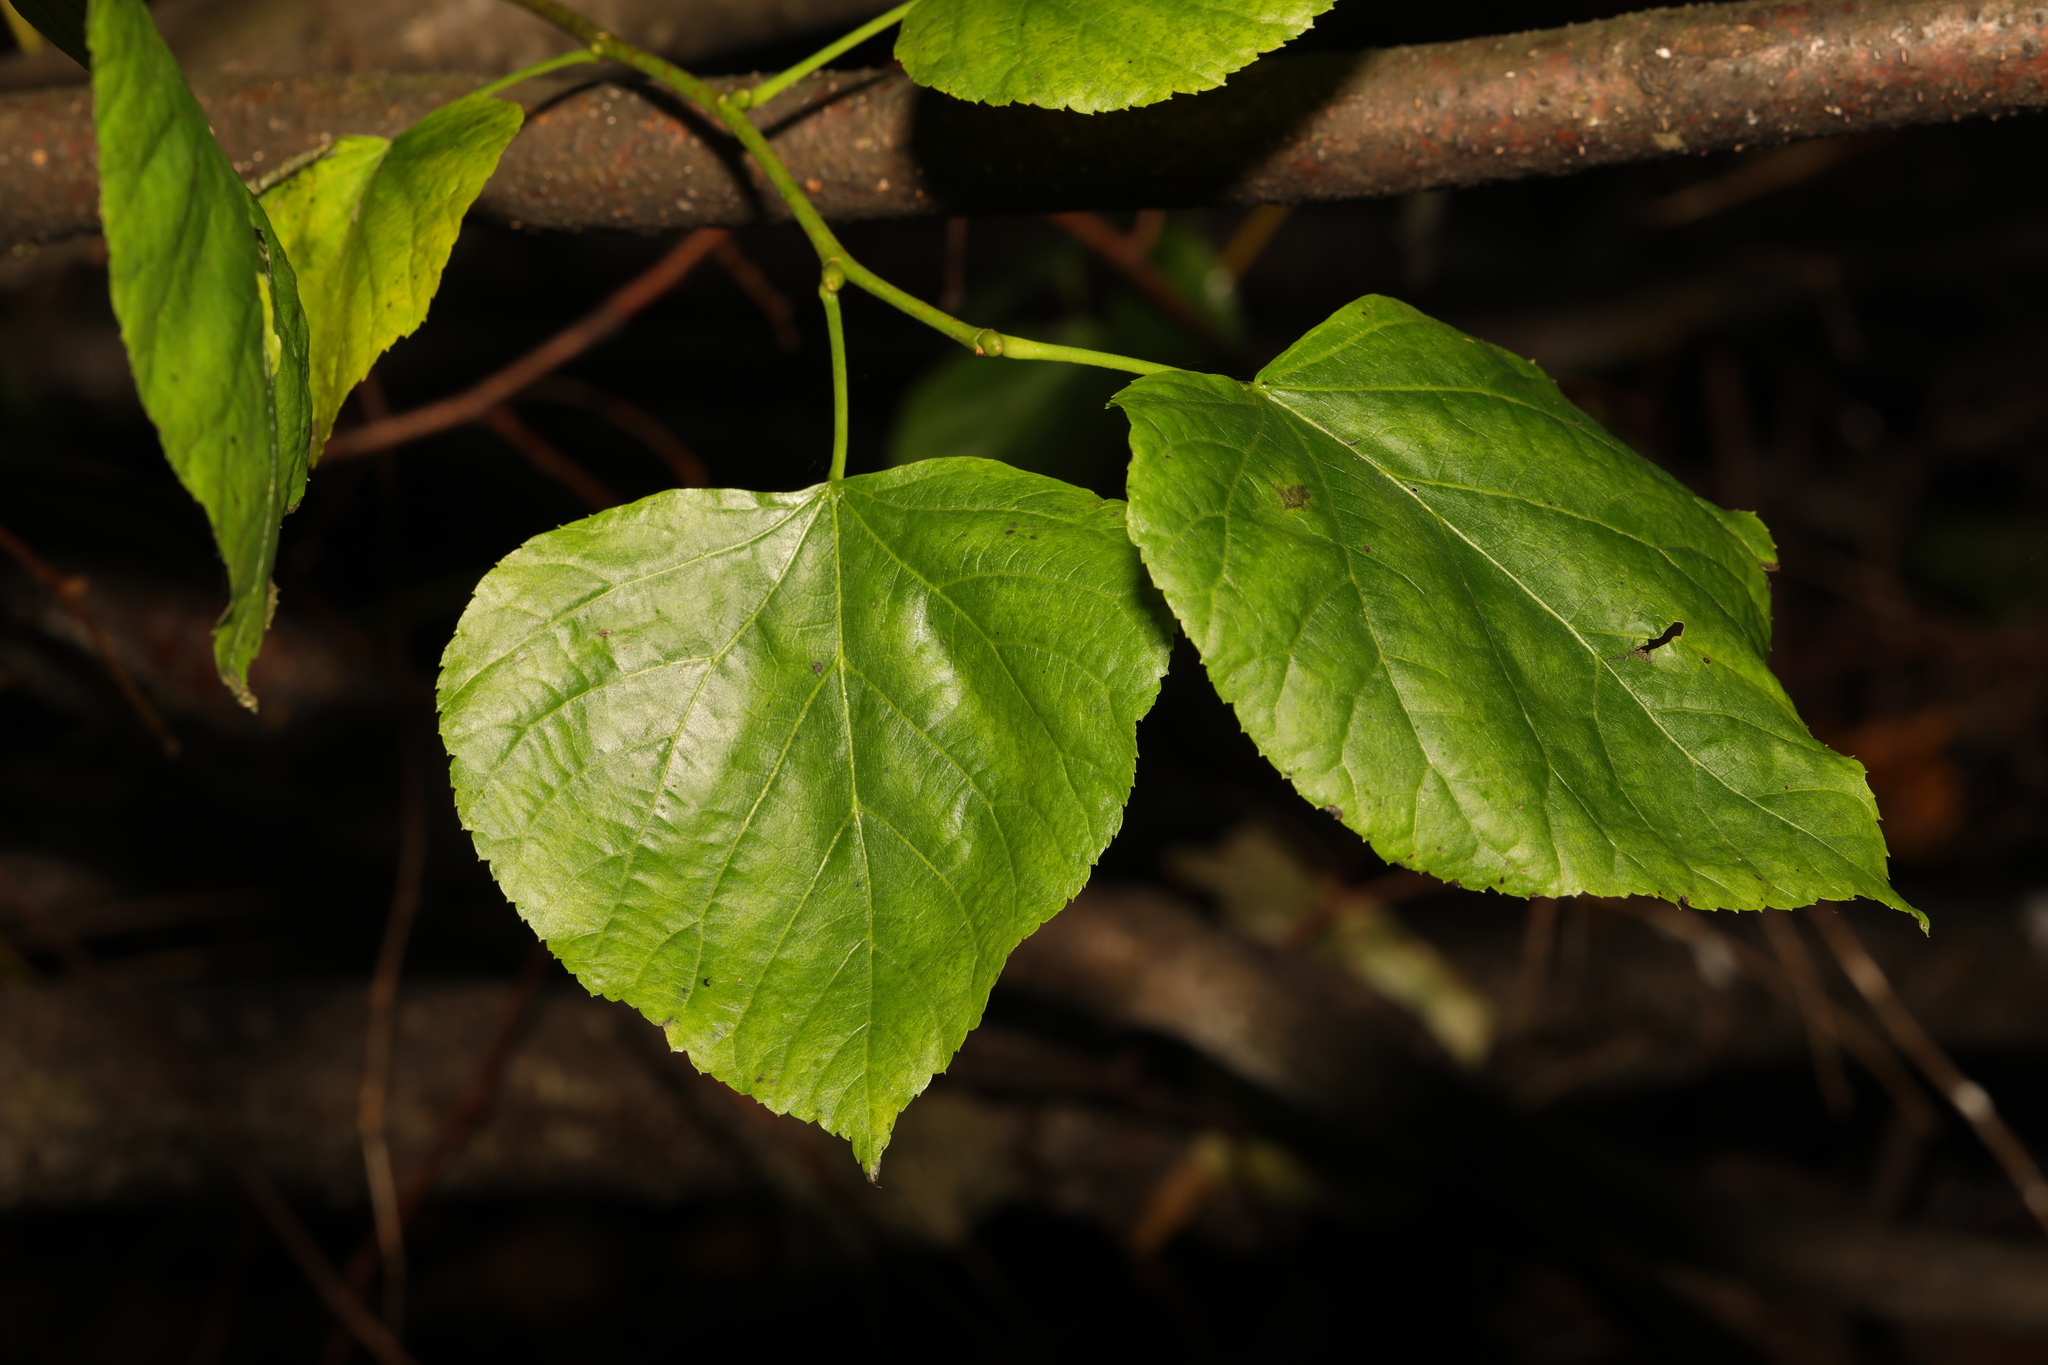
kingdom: Plantae
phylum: Tracheophyta
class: Magnoliopsida
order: Malvales
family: Malvaceae
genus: Tilia
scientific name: Tilia europaea
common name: European linden
